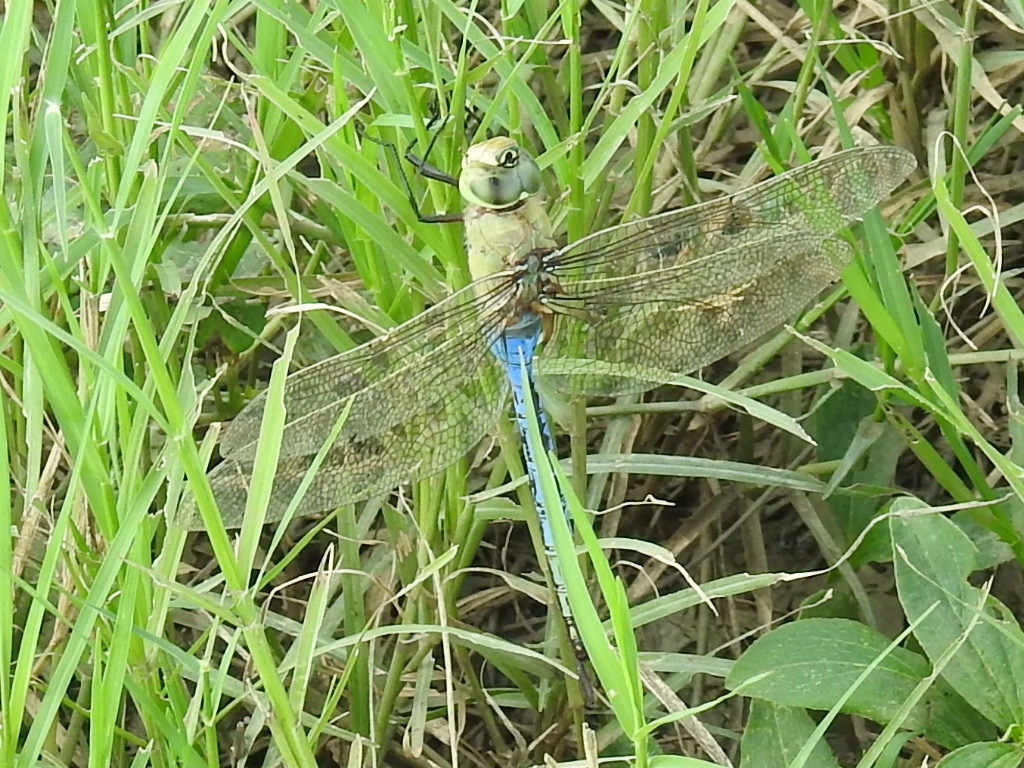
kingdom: Animalia
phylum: Arthropoda
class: Insecta
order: Odonata
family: Aeshnidae
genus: Anax
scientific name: Anax junius
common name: Common green darner
